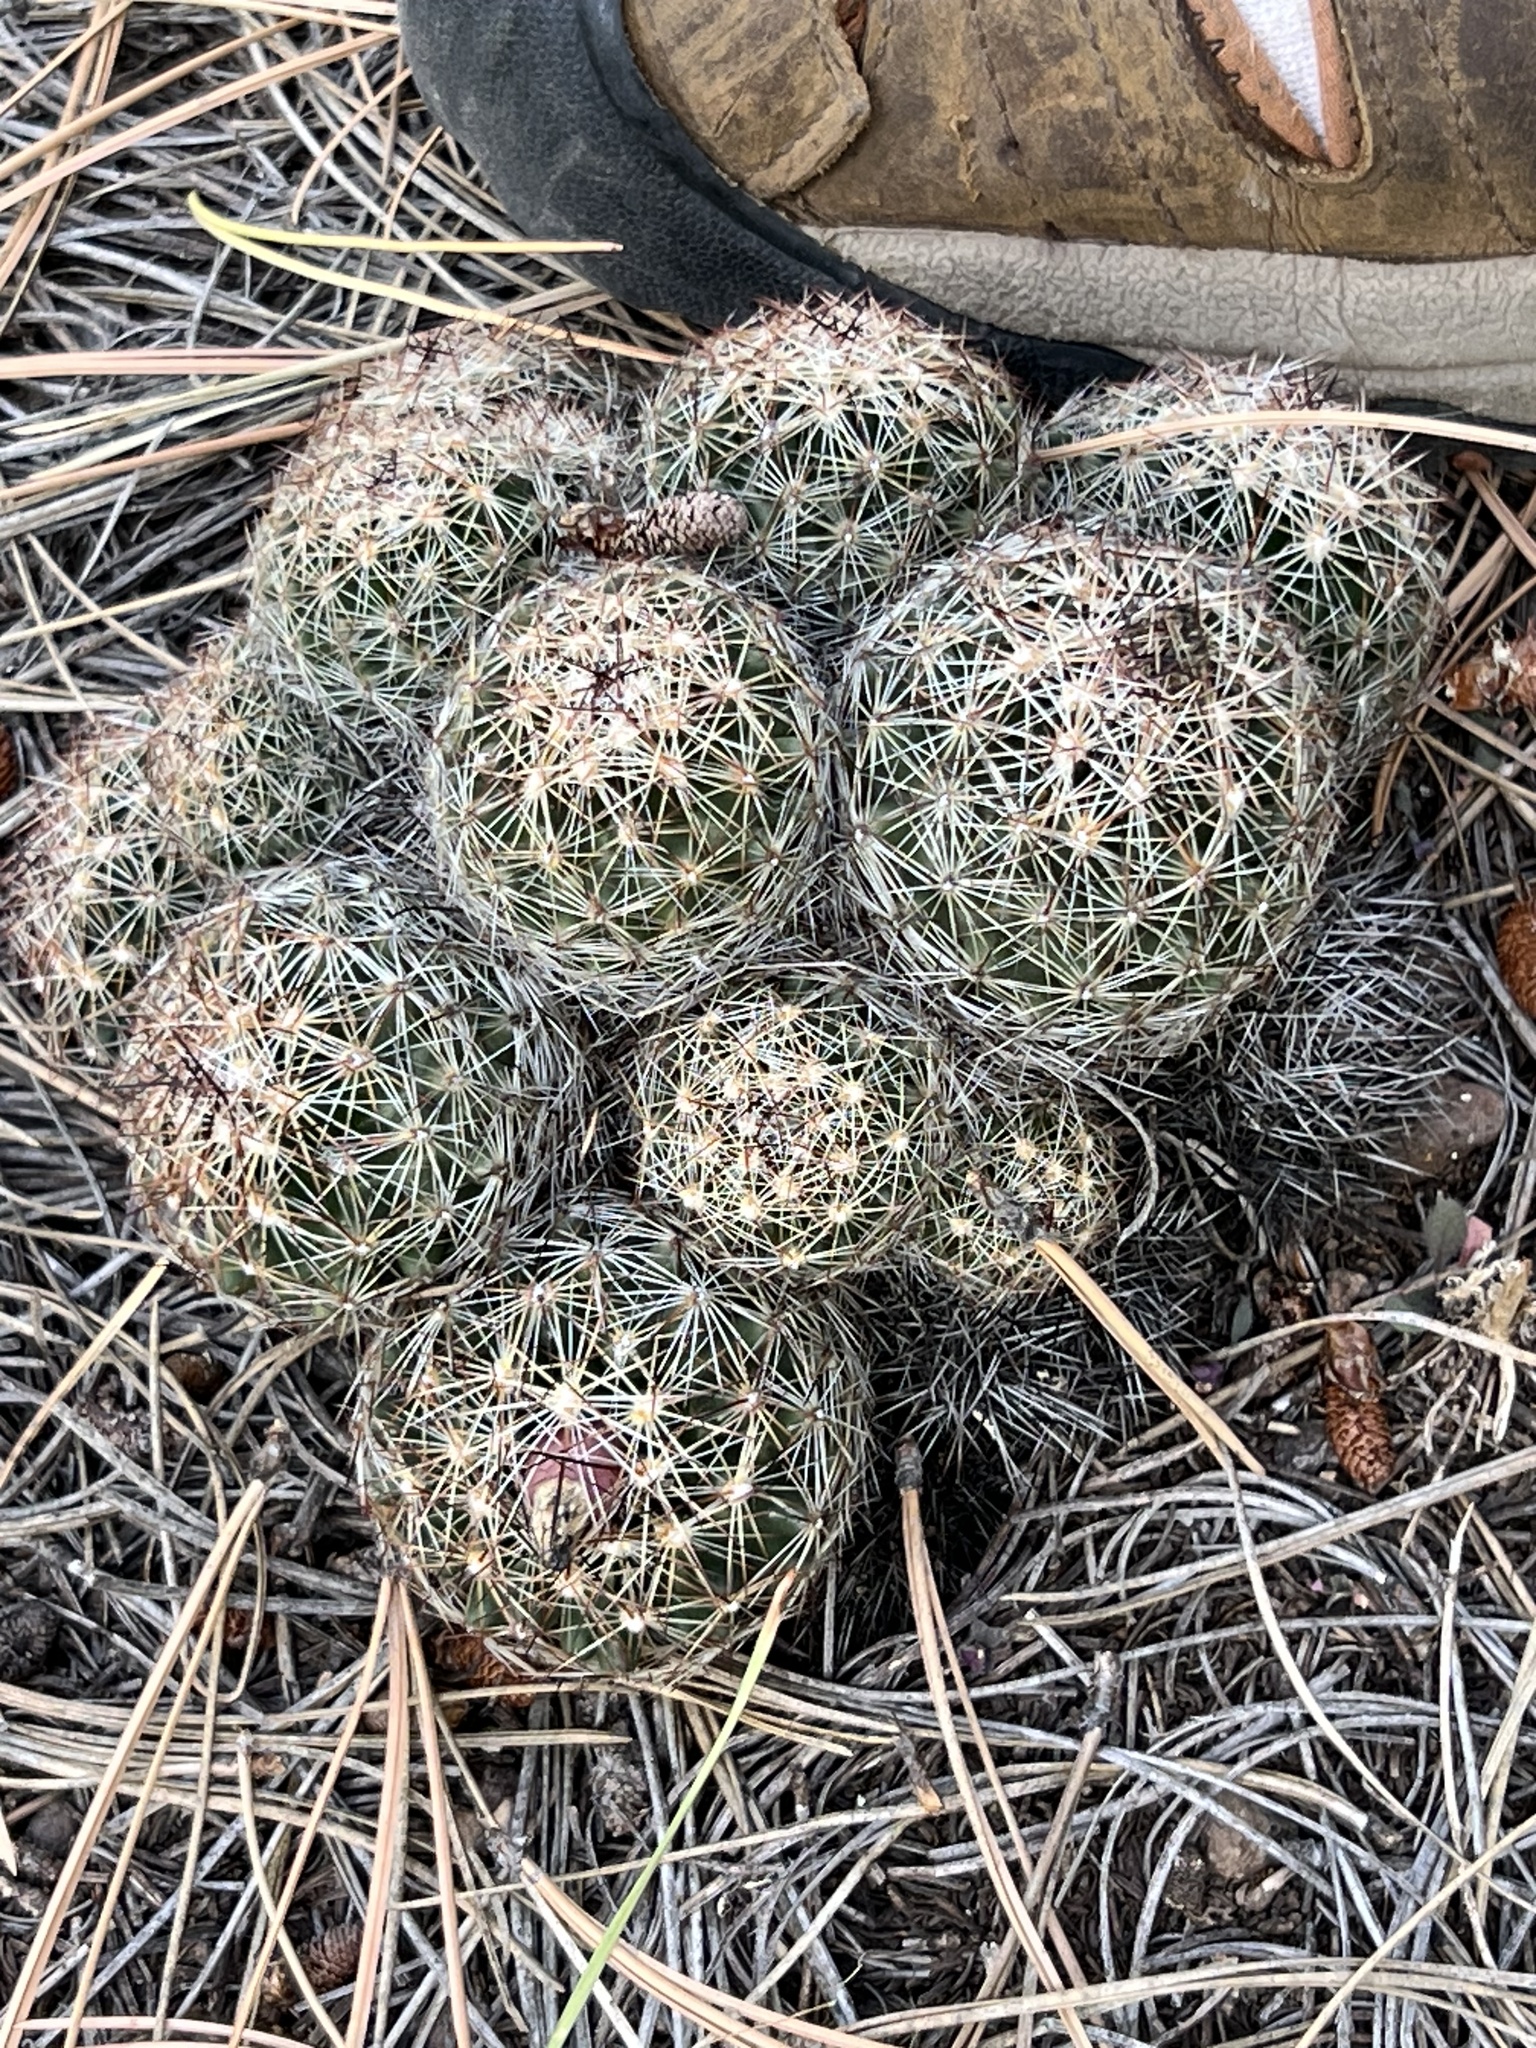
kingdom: Plantae
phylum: Tracheophyta
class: Magnoliopsida
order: Caryophyllales
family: Cactaceae
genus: Pelecyphora
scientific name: Pelecyphora vivipara
